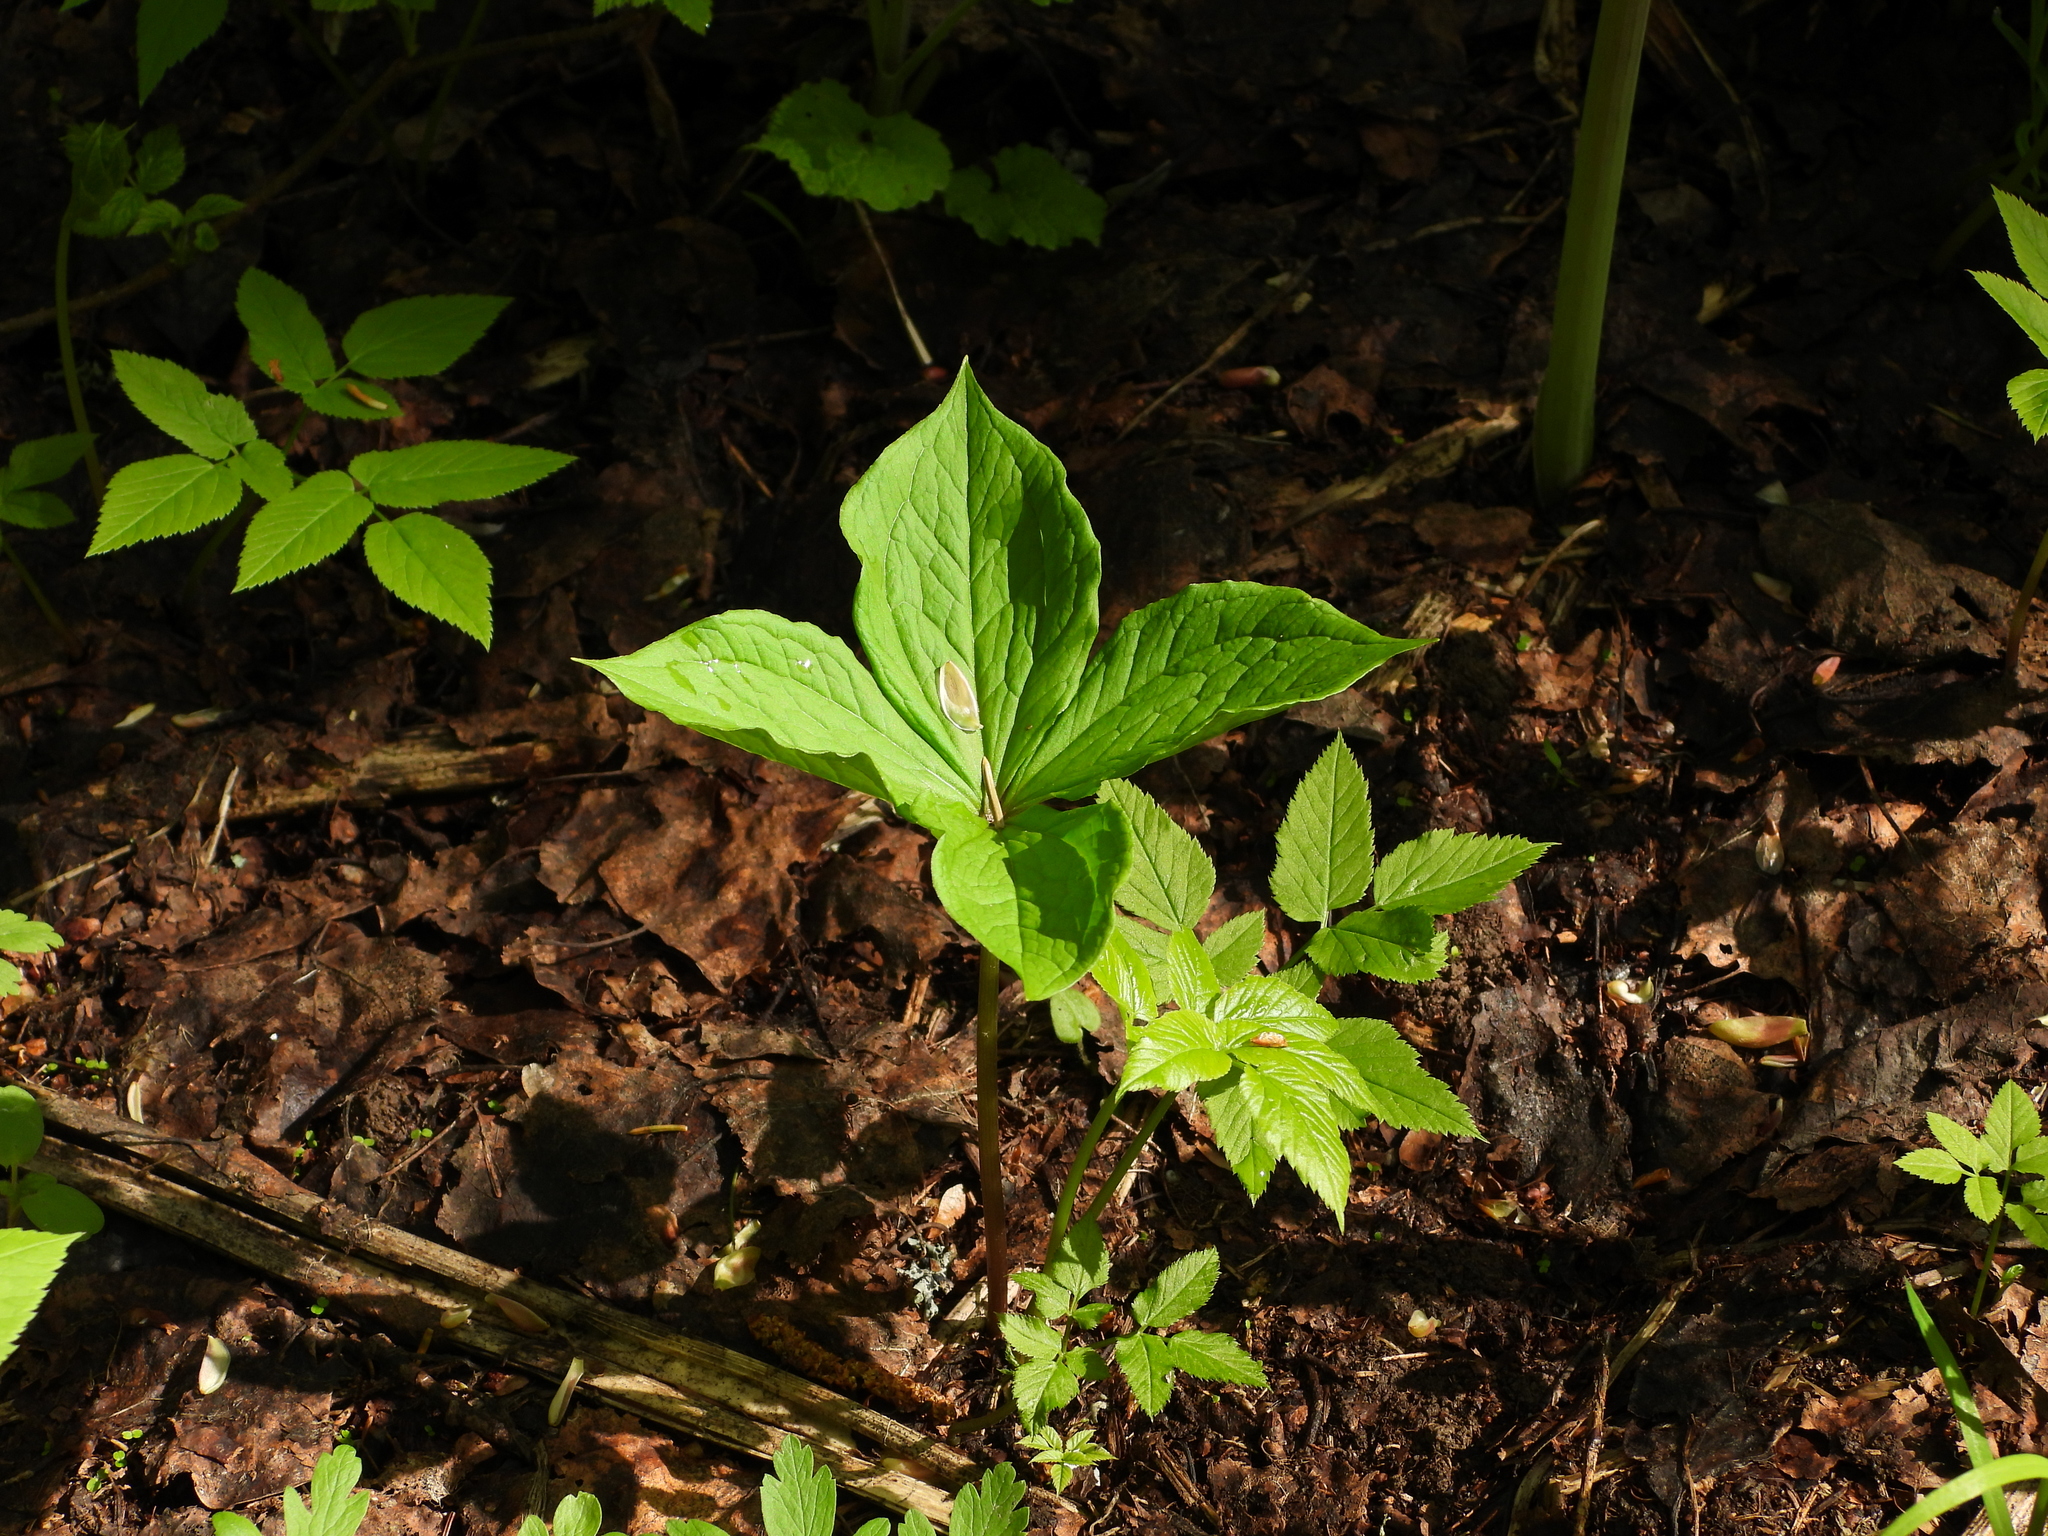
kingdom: Plantae
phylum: Tracheophyta
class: Liliopsida
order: Liliales
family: Melanthiaceae
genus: Paris
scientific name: Paris quadrifolia
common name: Herb-paris
